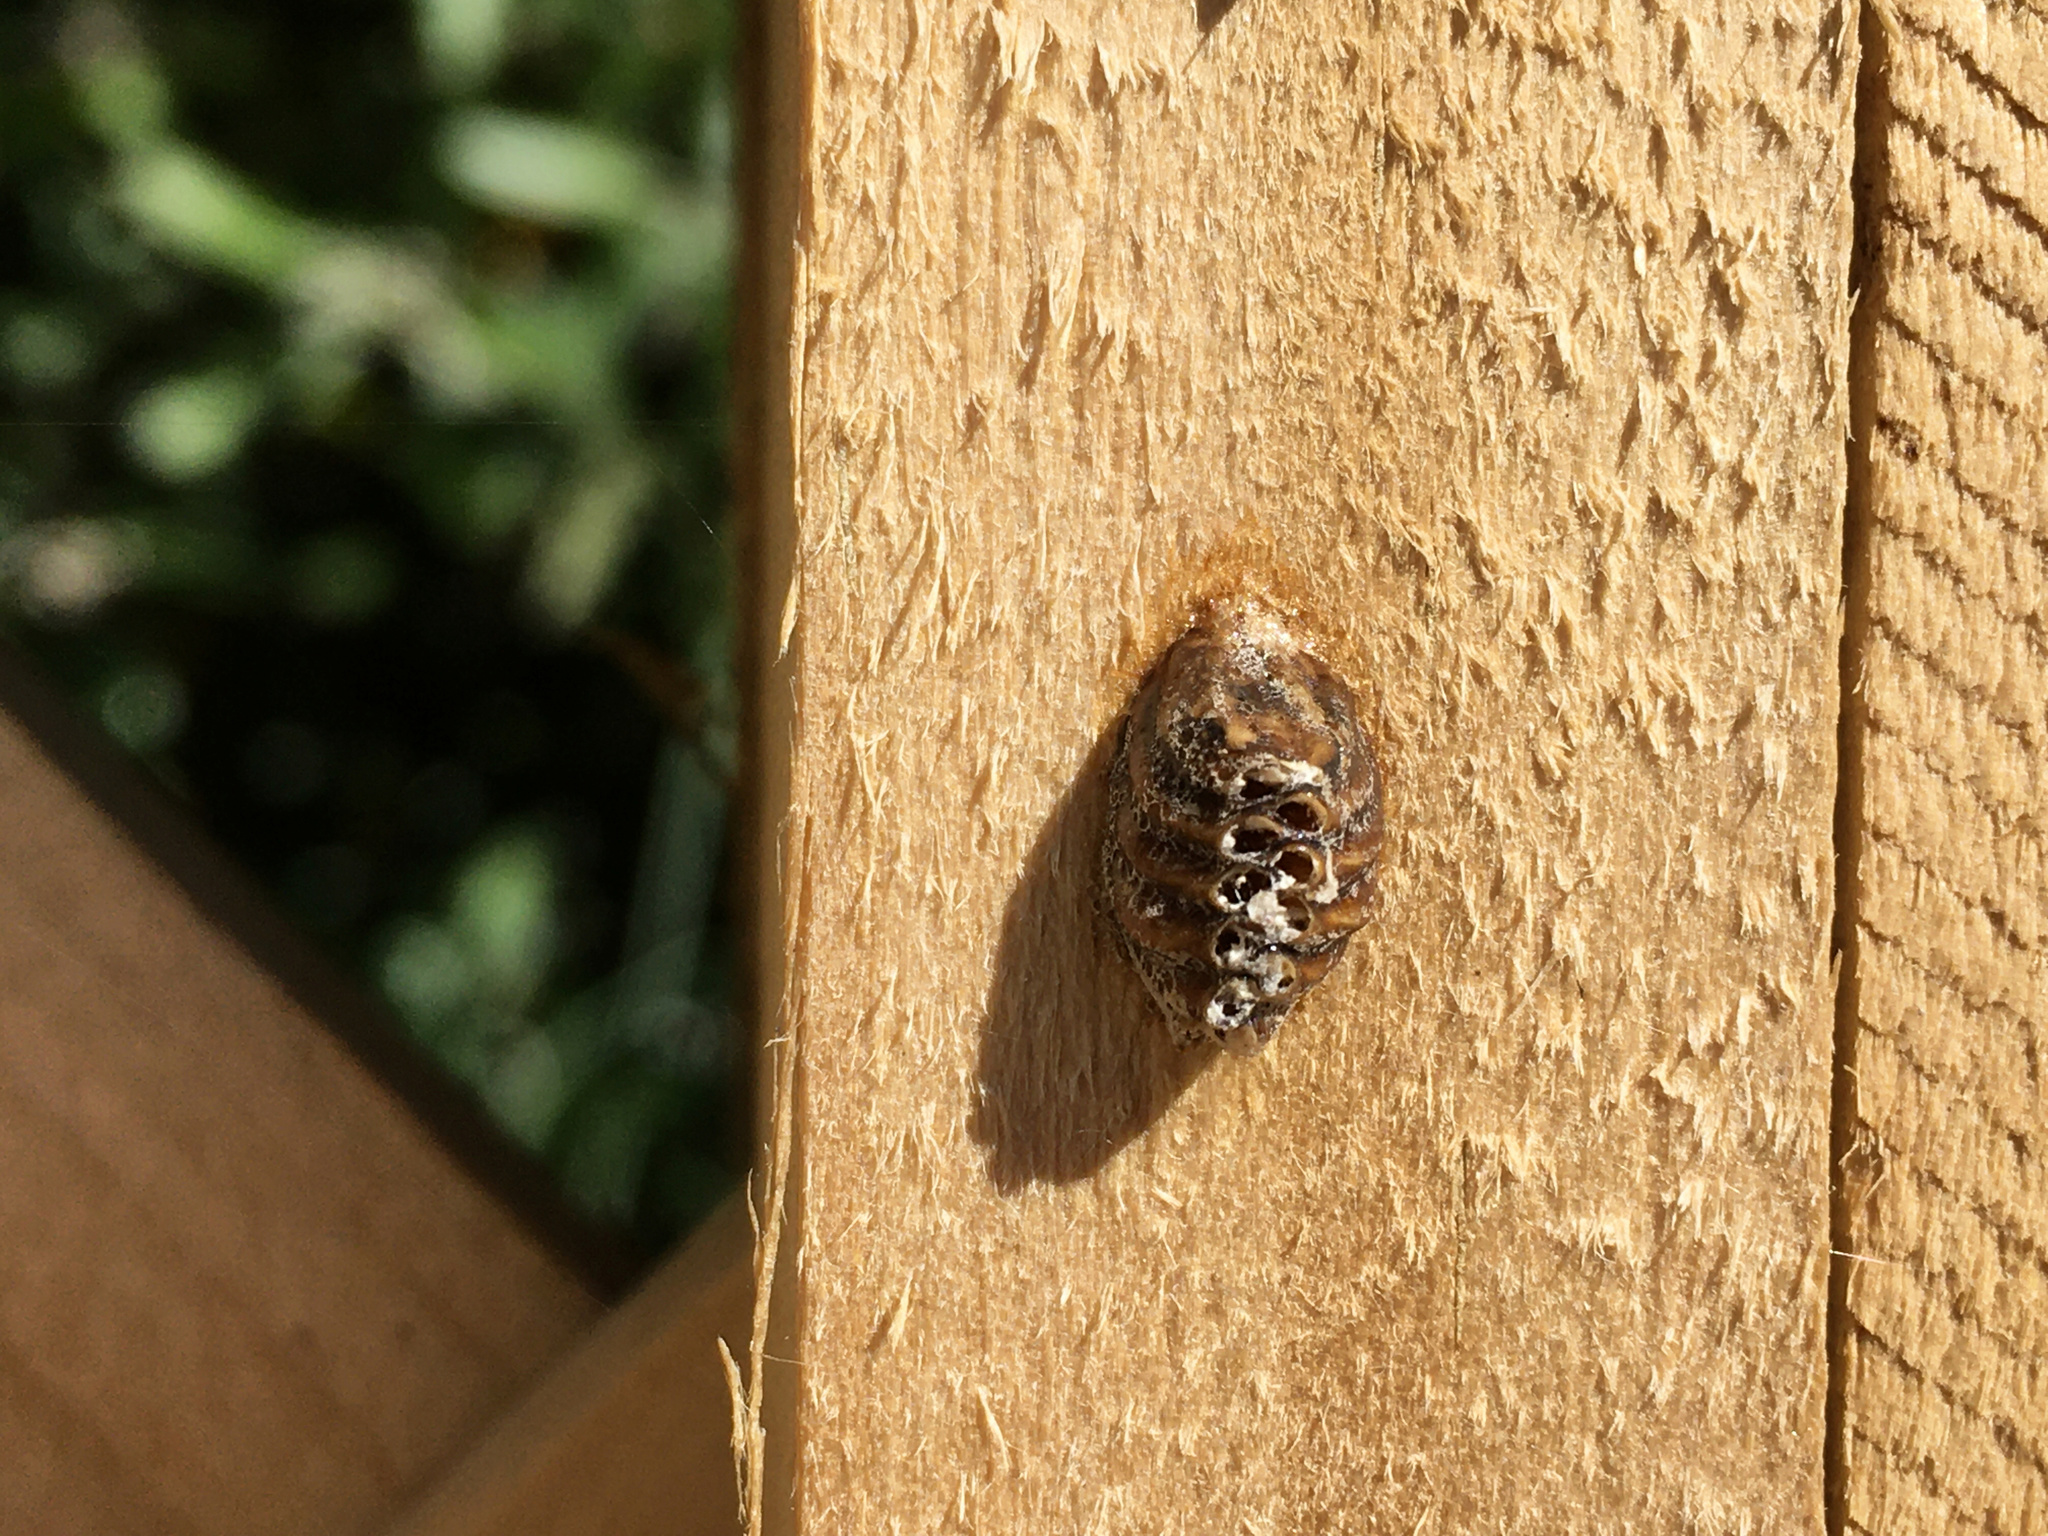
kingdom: Animalia
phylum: Arthropoda
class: Insecta
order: Mantodea
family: Mantidae
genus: Orthodera
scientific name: Orthodera novaezealandiae
